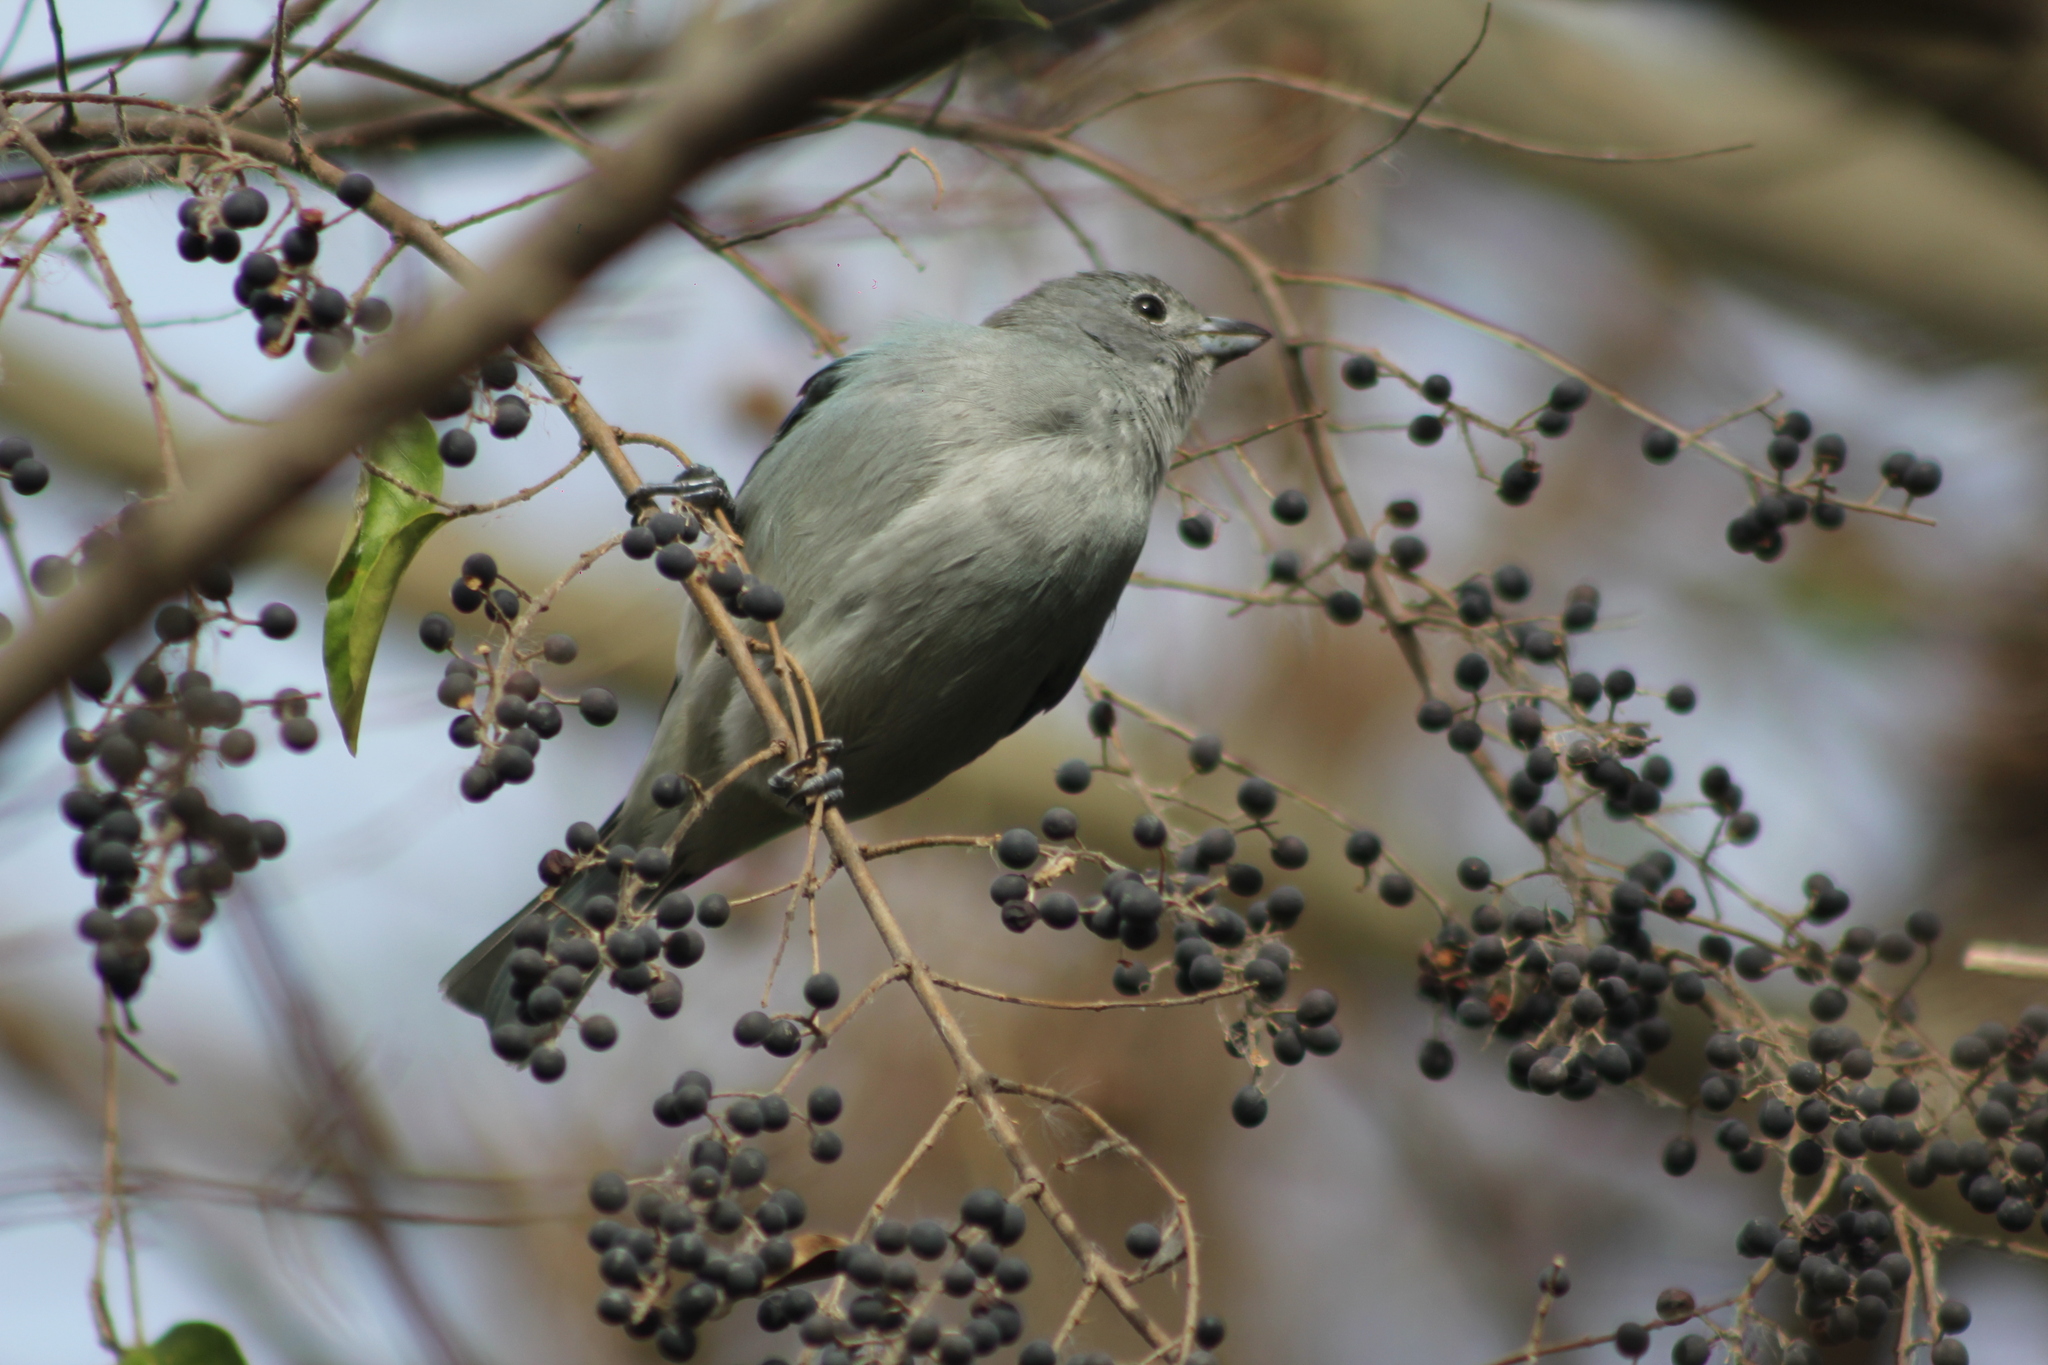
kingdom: Animalia
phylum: Chordata
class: Aves
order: Passeriformes
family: Thraupidae
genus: Thraupis
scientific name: Thraupis sayaca
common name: Sayaca tanager
